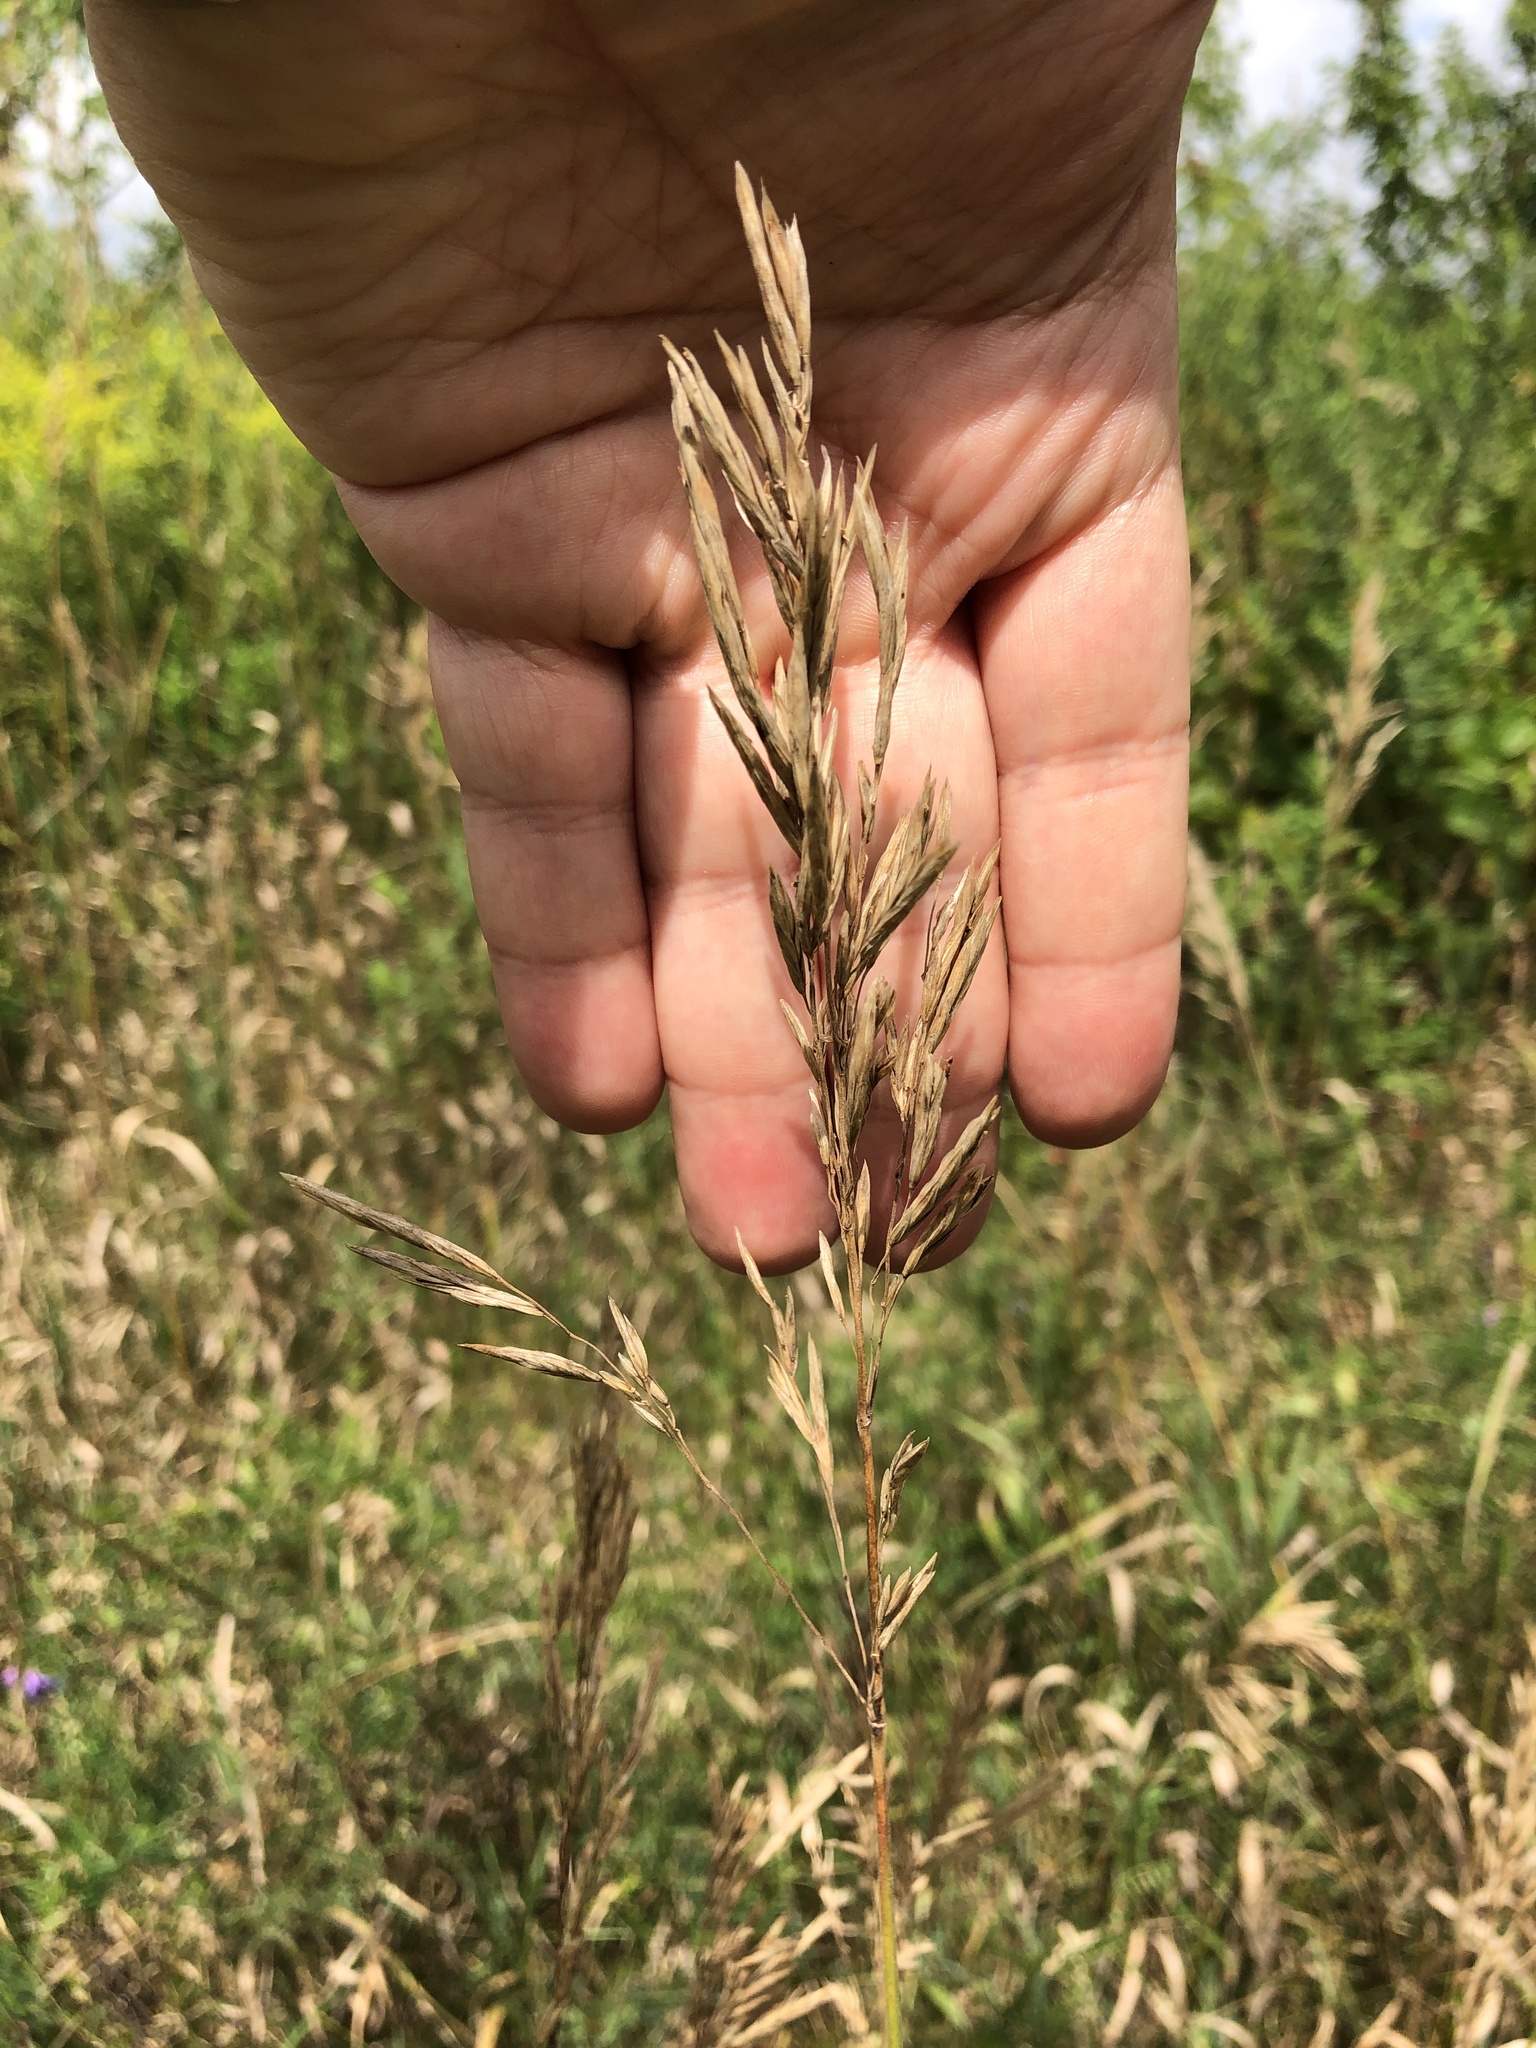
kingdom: Plantae
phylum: Tracheophyta
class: Liliopsida
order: Poales
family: Poaceae
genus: Bromus
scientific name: Bromus inermis
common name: Smooth brome
